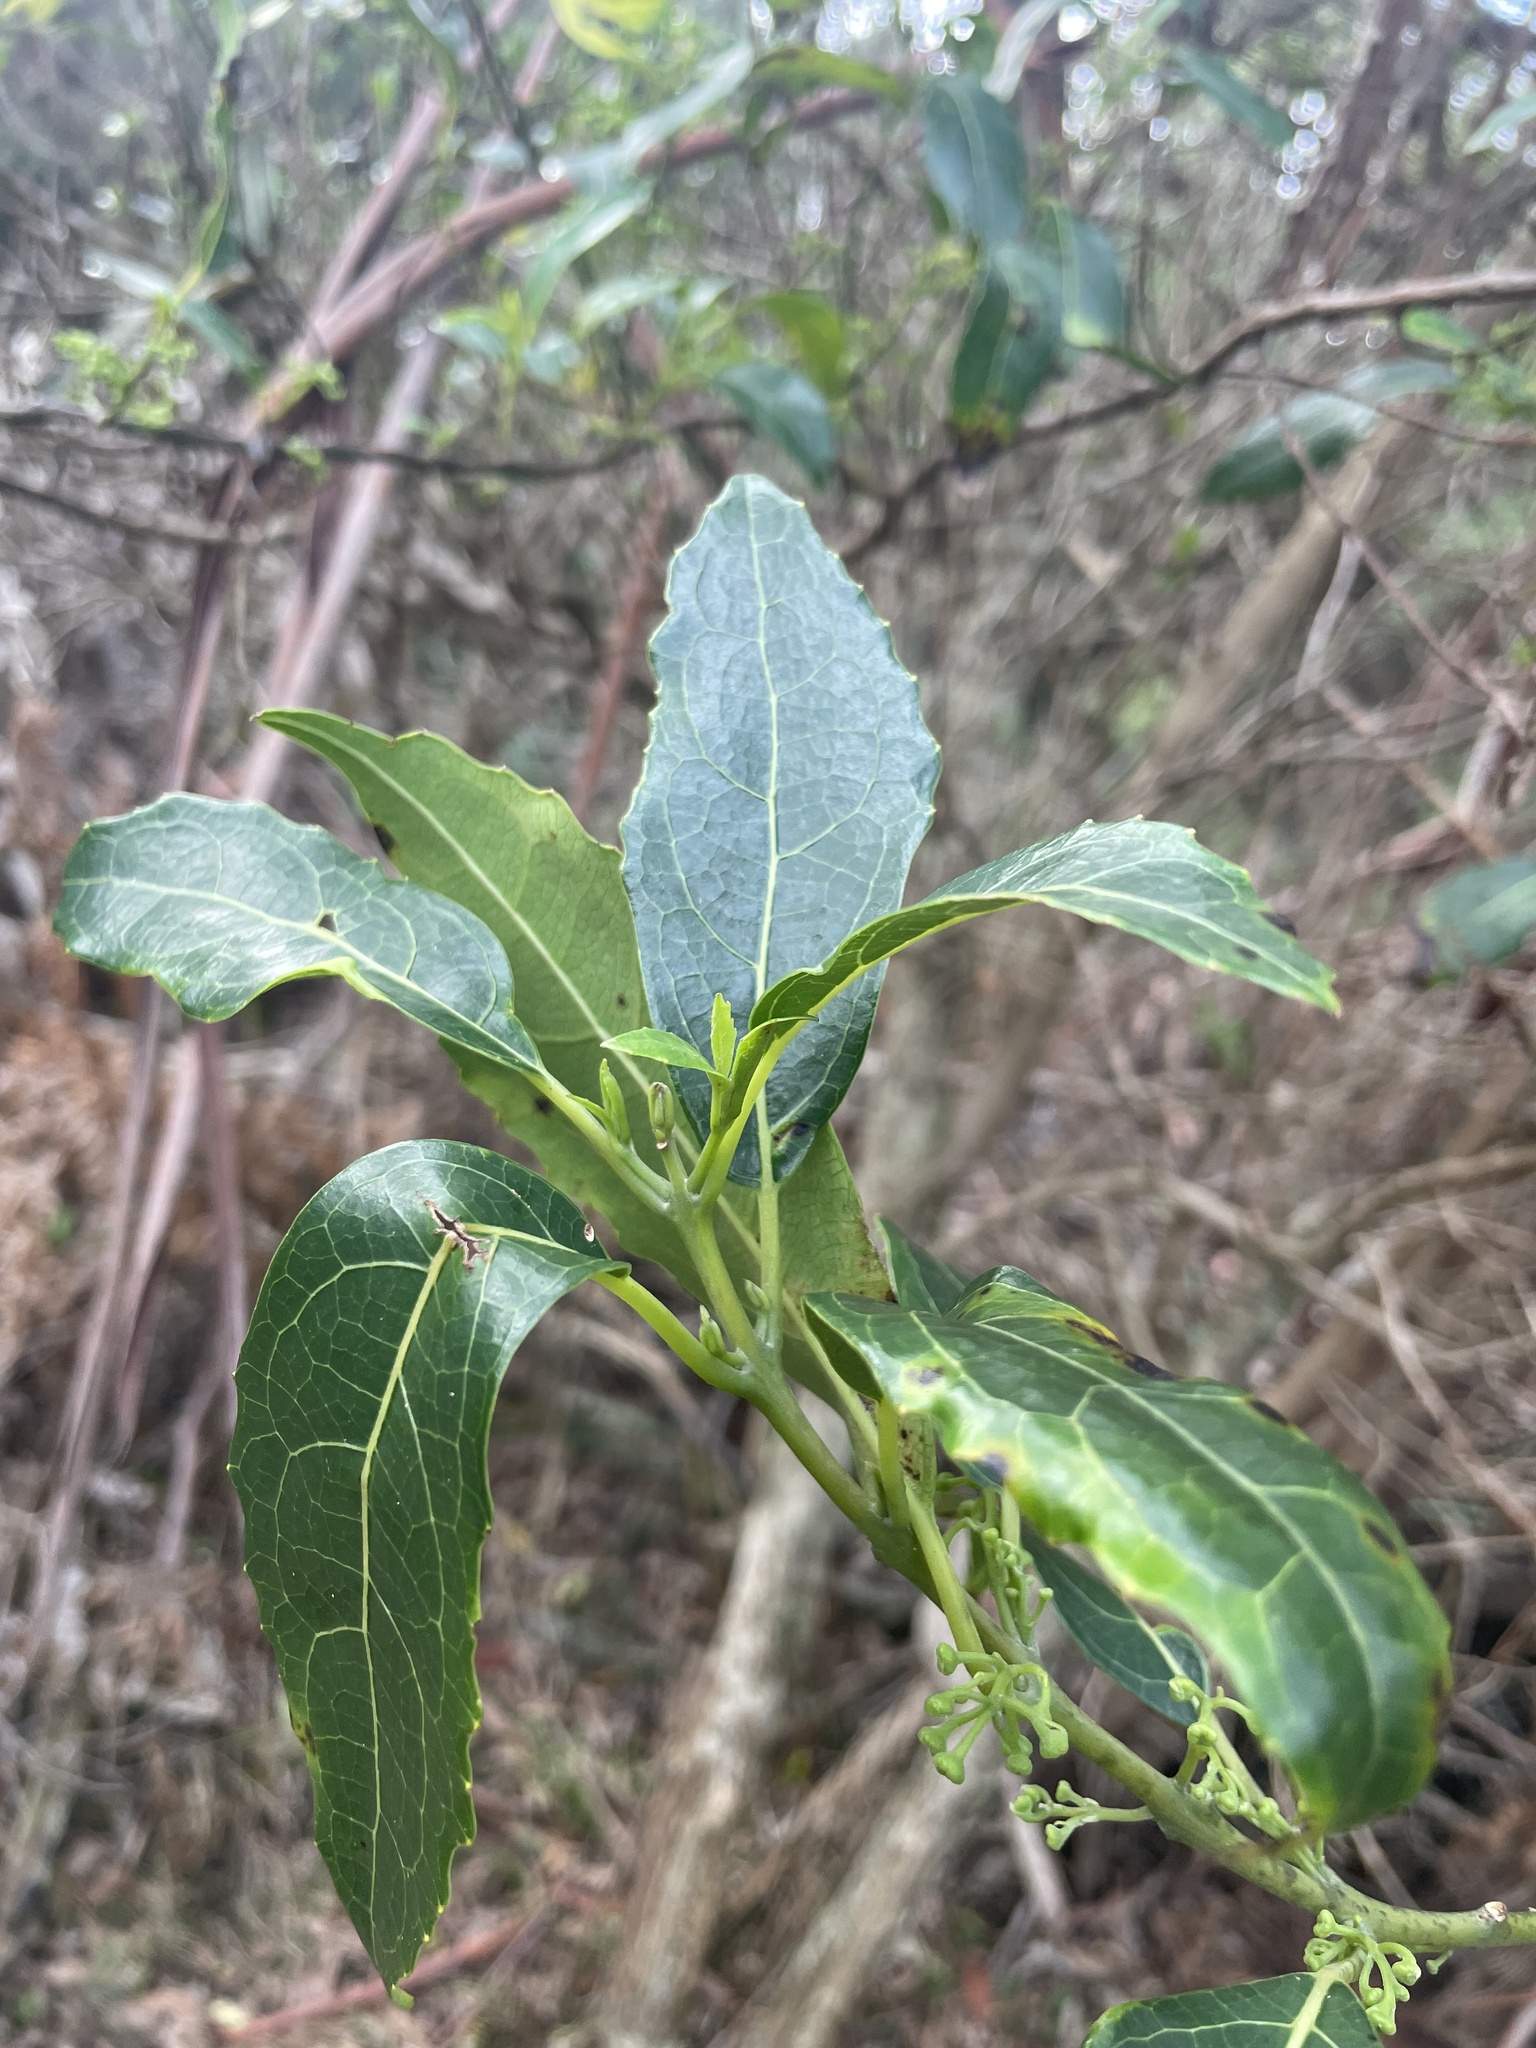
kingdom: Plantae
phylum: Tracheophyta
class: Magnoliopsida
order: Laurales
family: Monimiaceae
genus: Hedycarya
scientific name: Hedycarya angustifolia
